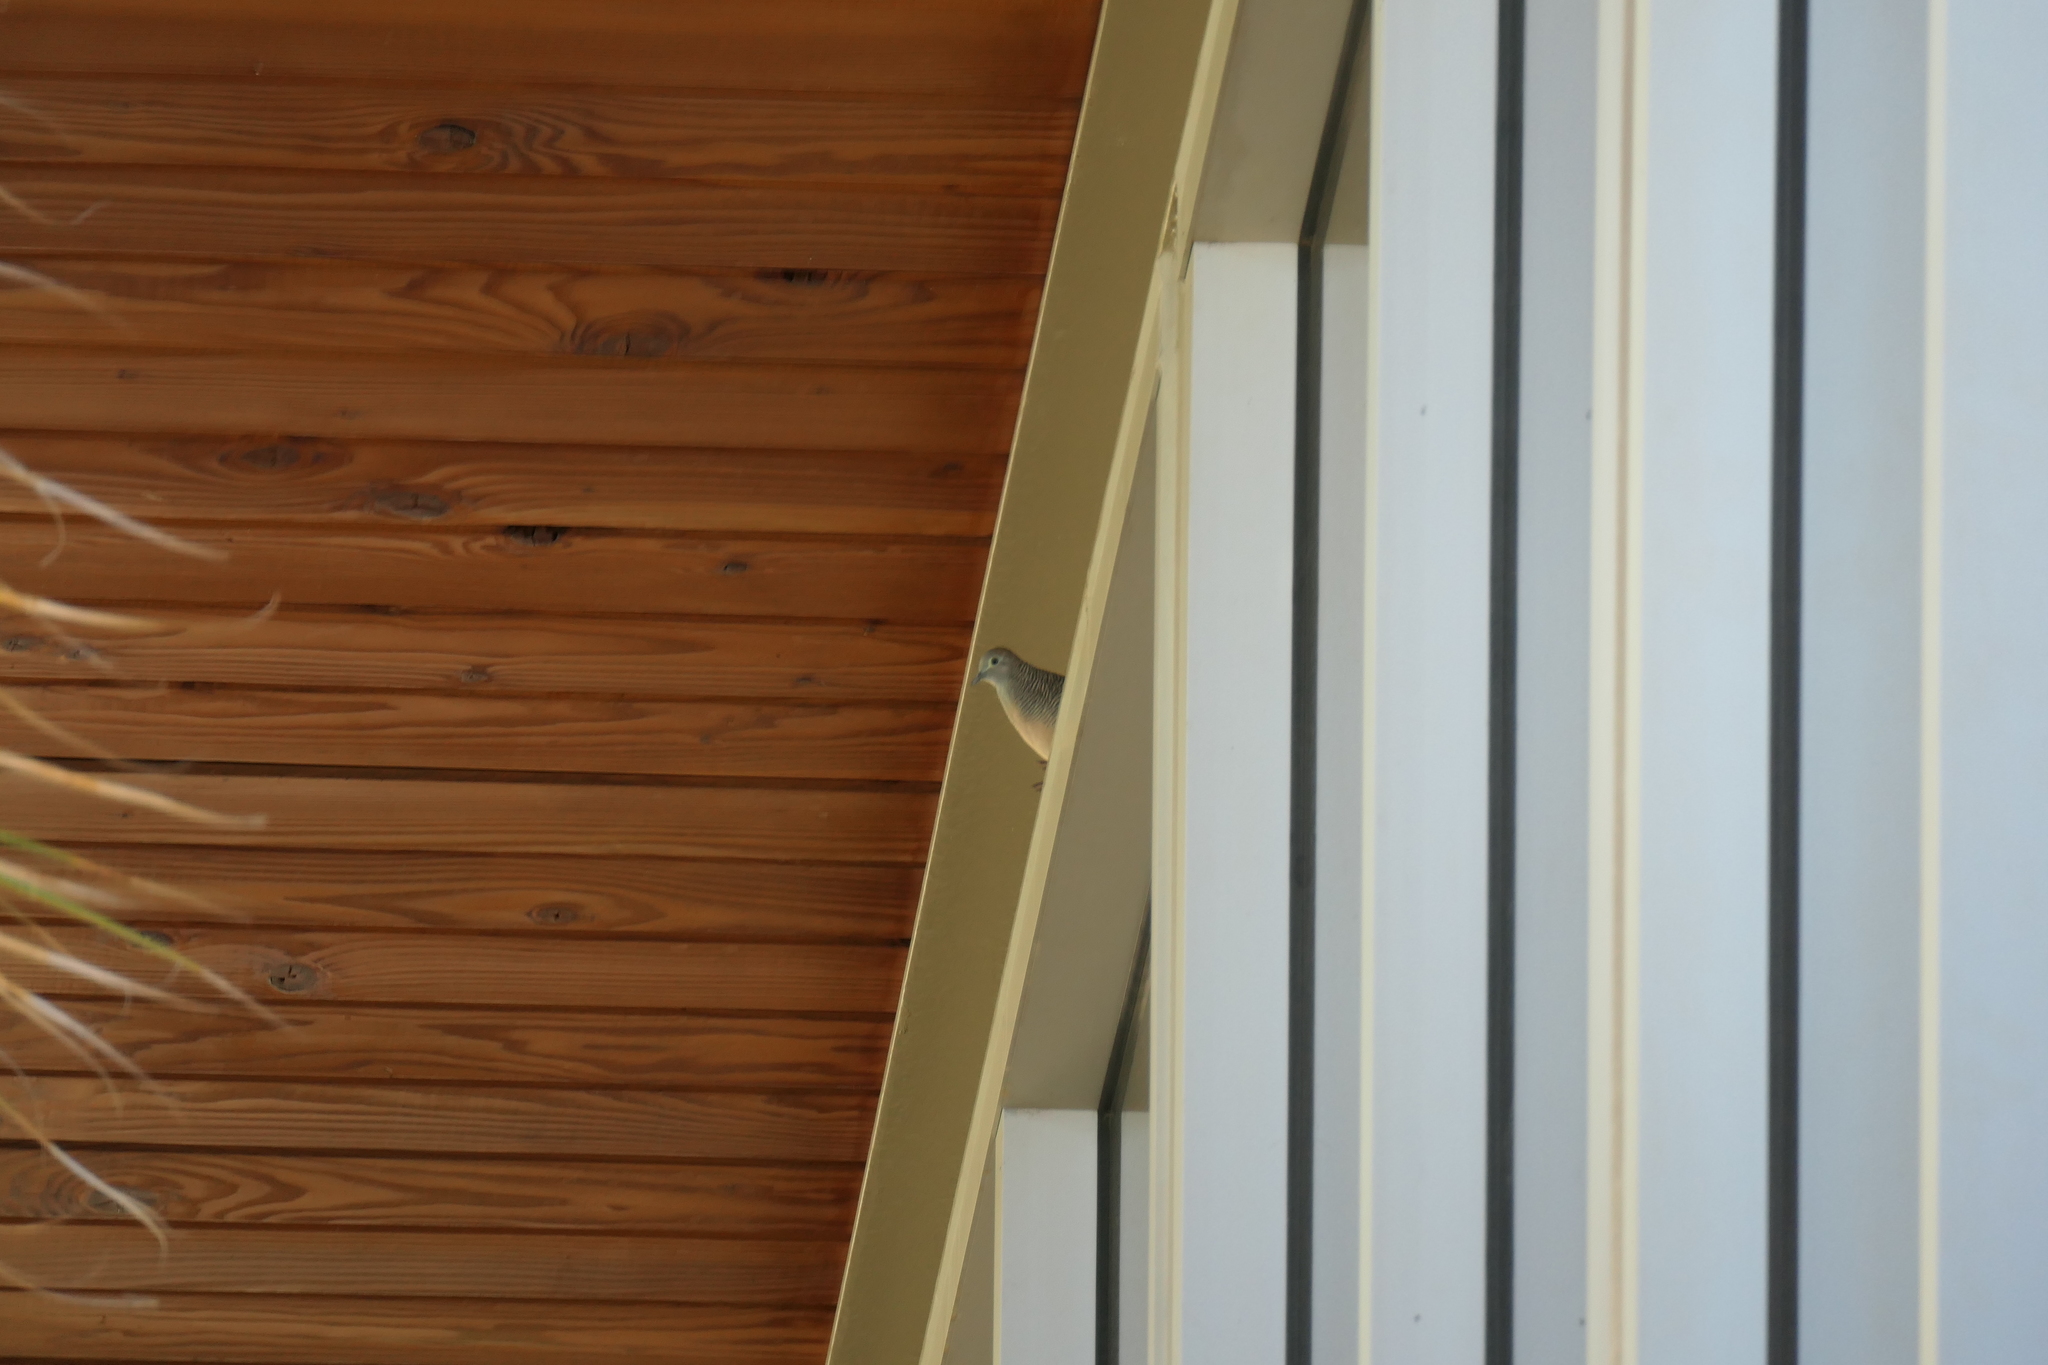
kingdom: Animalia
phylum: Chordata
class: Aves
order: Columbiformes
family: Columbidae
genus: Geopelia
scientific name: Geopelia striata
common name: Zebra dove
